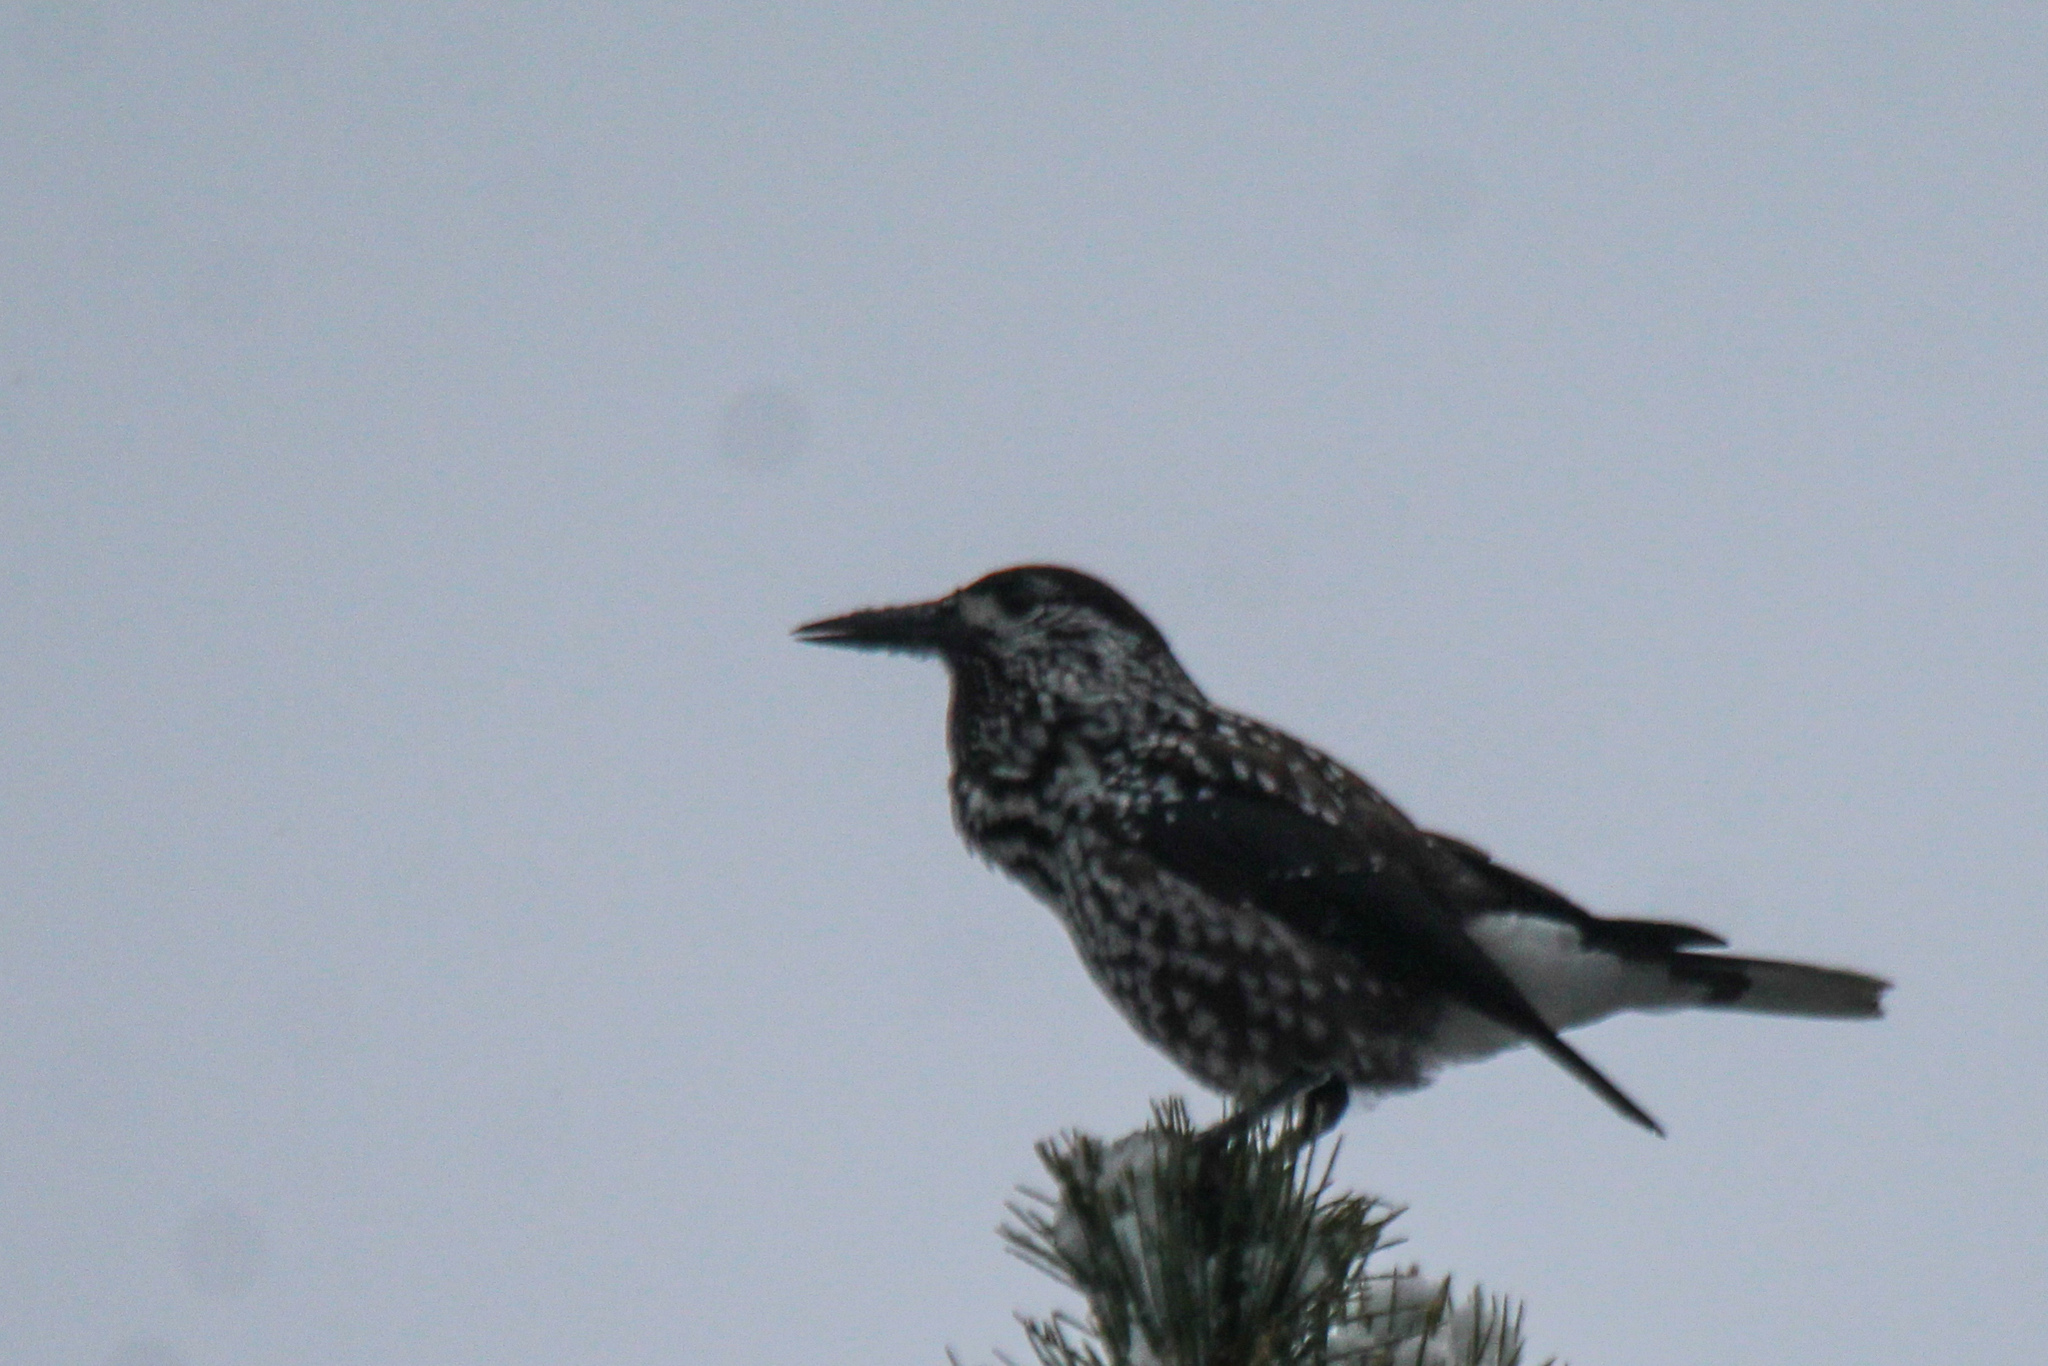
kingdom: Animalia
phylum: Chordata
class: Aves
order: Passeriformes
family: Corvidae
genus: Nucifraga
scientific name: Nucifraga caryocatactes
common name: Spotted nutcracker
